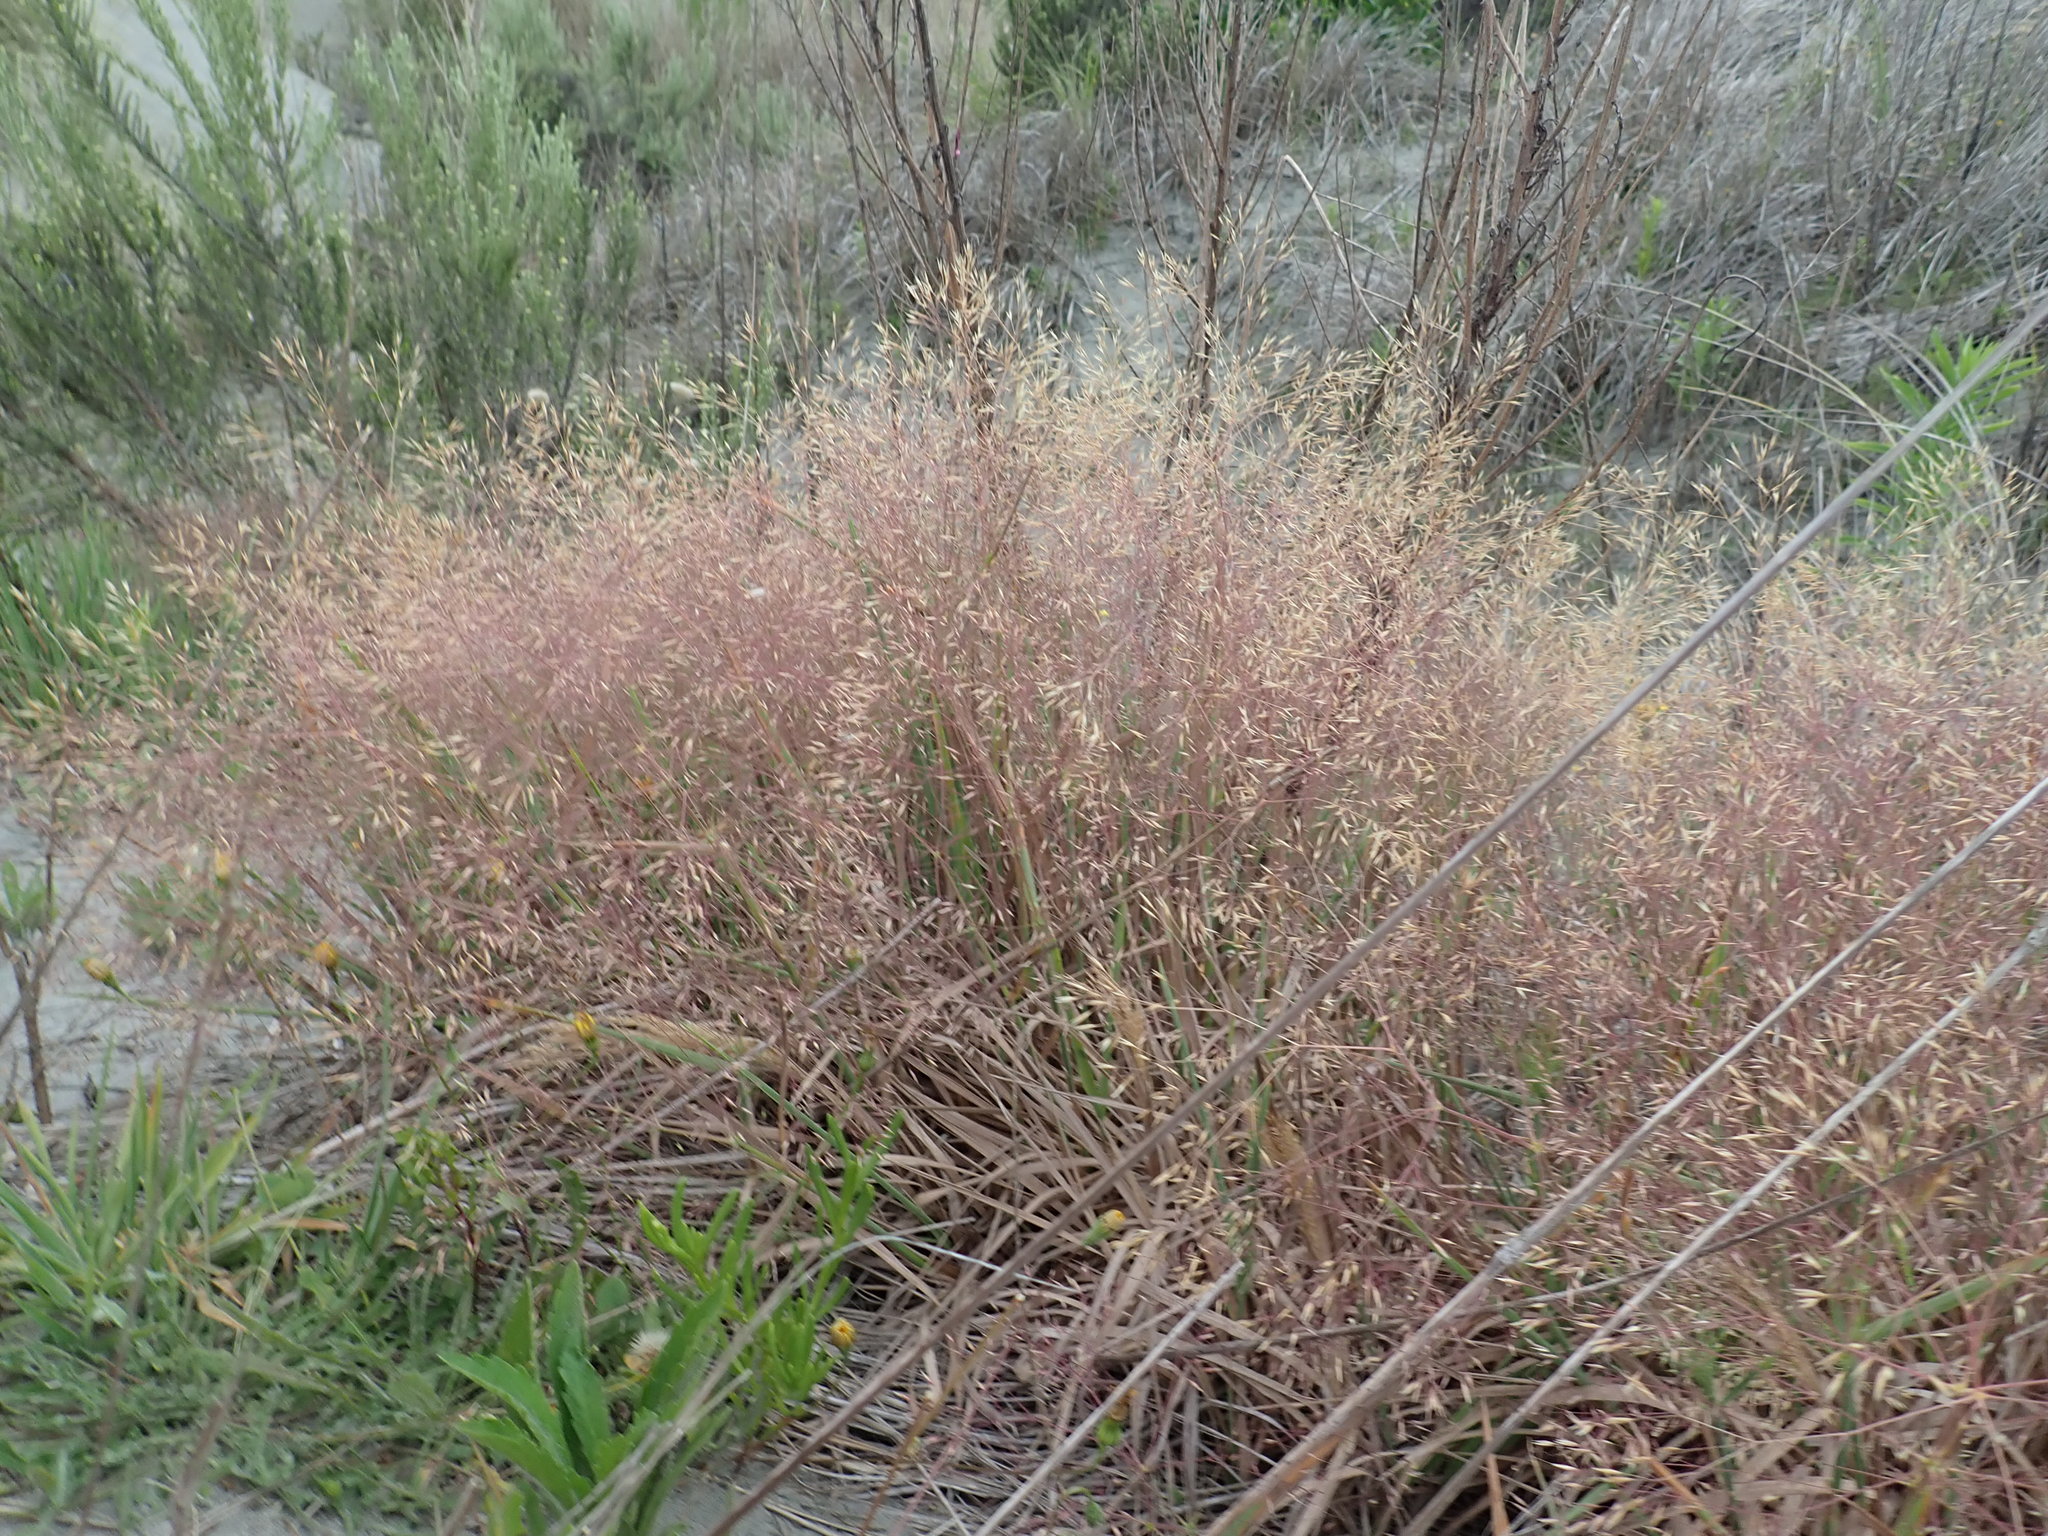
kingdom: Plantae
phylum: Tracheophyta
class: Liliopsida
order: Poales
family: Poaceae
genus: Lachnagrostis
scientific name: Lachnagrostis billardierei
